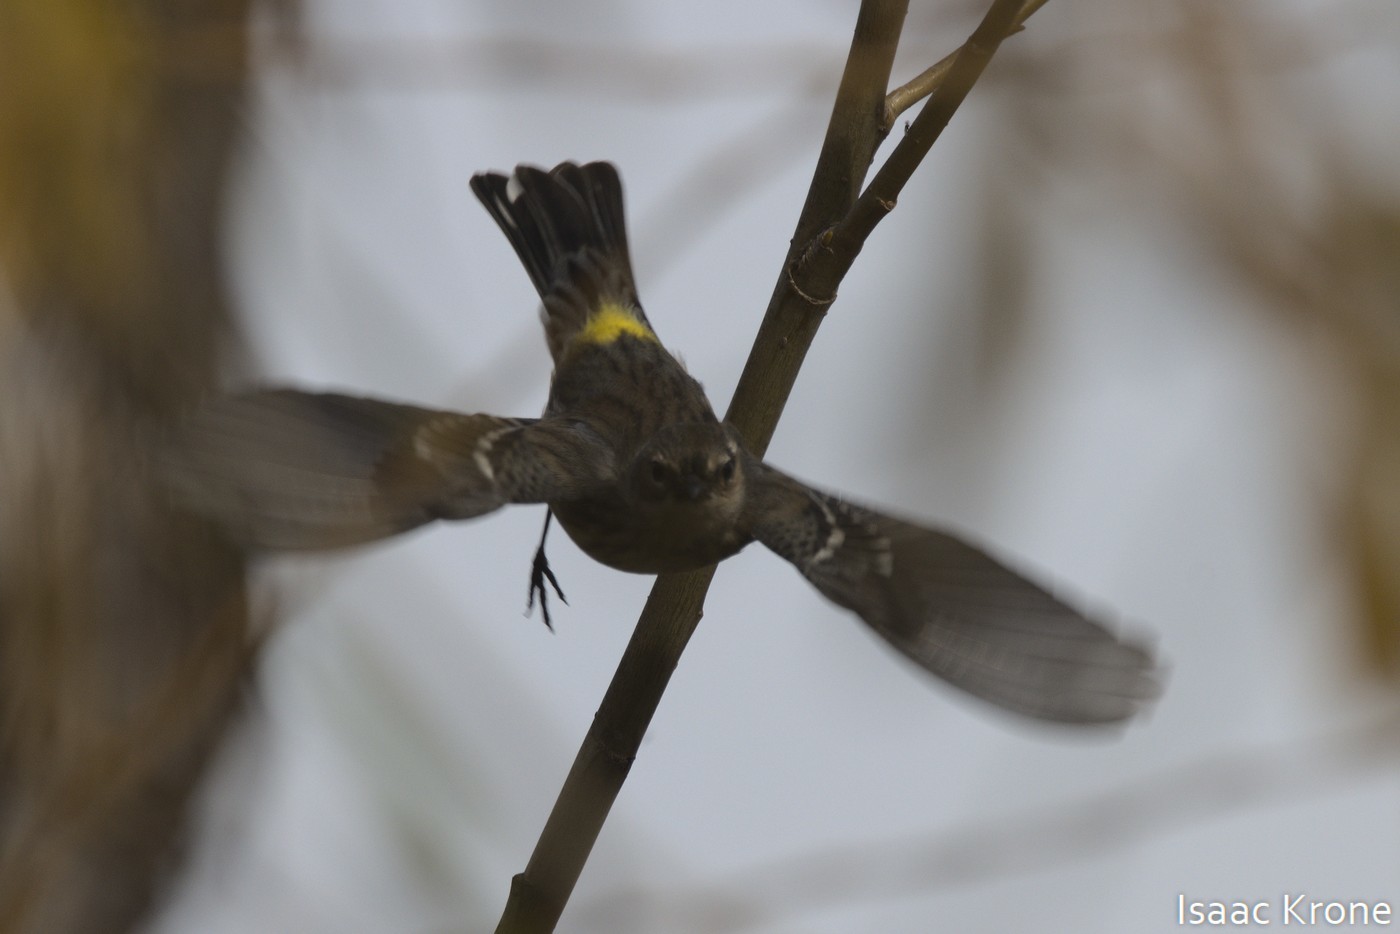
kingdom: Animalia
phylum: Chordata
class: Aves
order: Passeriformes
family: Parulidae
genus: Setophaga
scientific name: Setophaga coronata
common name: Myrtle warbler
